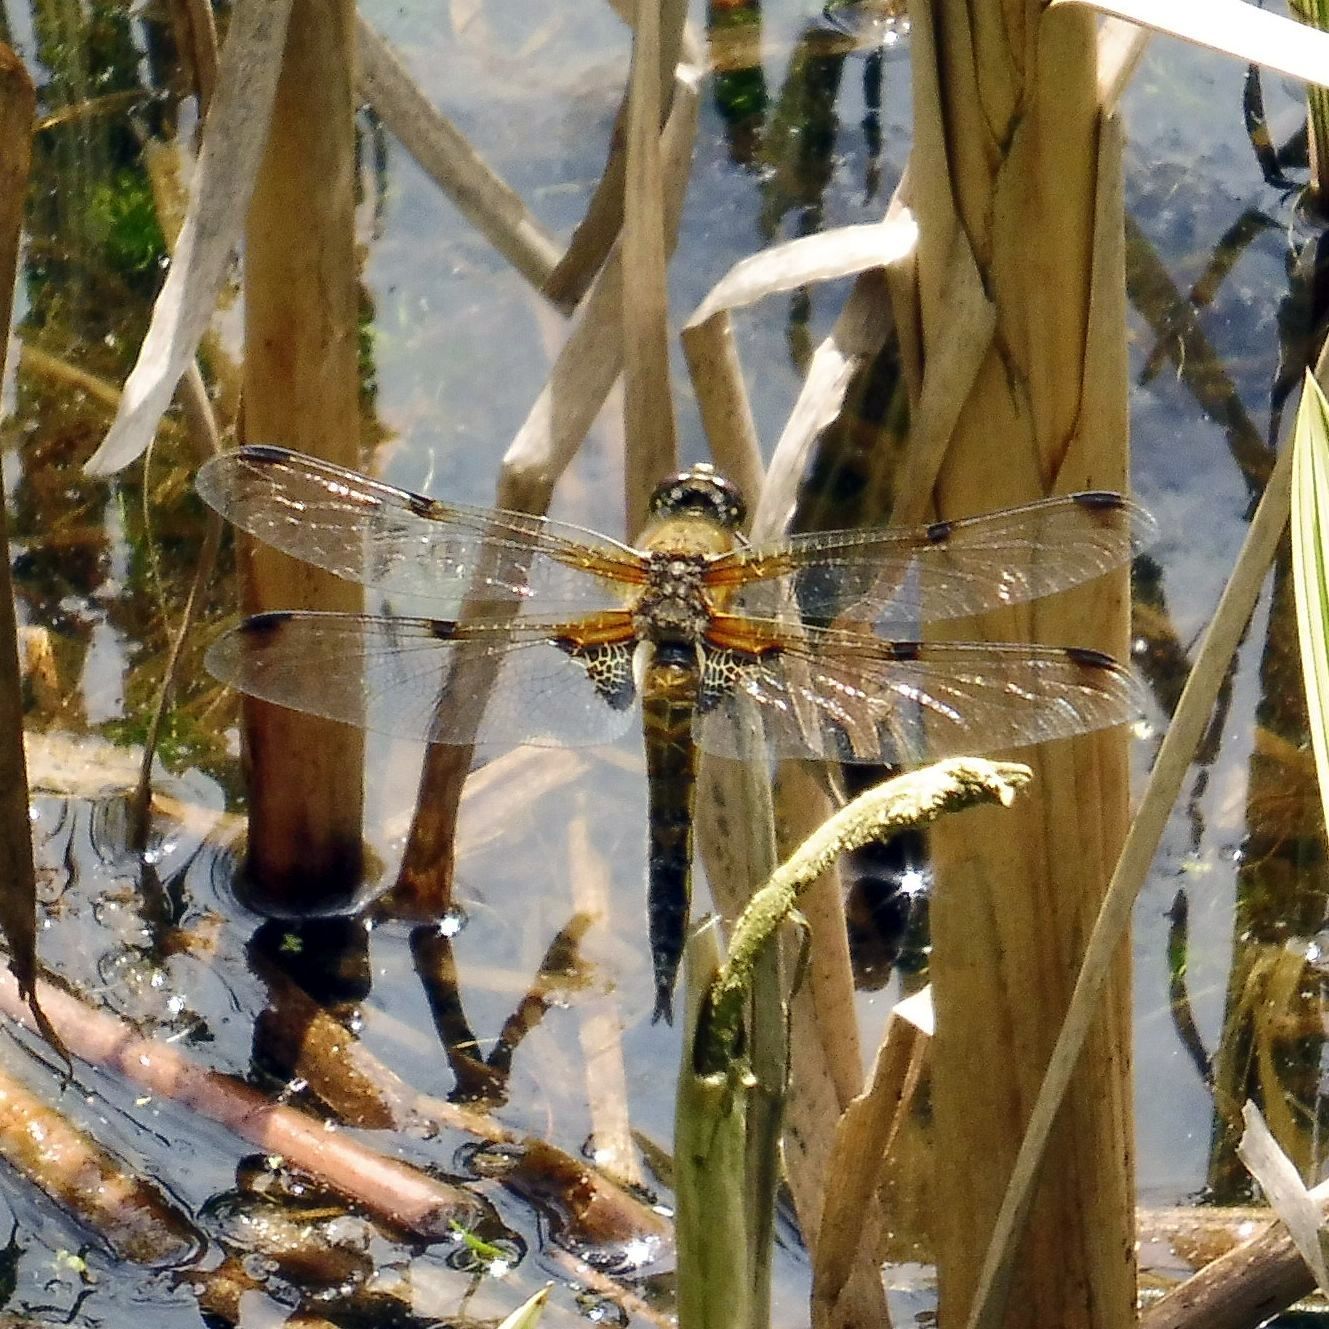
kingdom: Animalia
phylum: Arthropoda
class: Insecta
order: Odonata
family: Libellulidae
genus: Libellula
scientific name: Libellula quadrimaculata
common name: Four-spotted chaser
